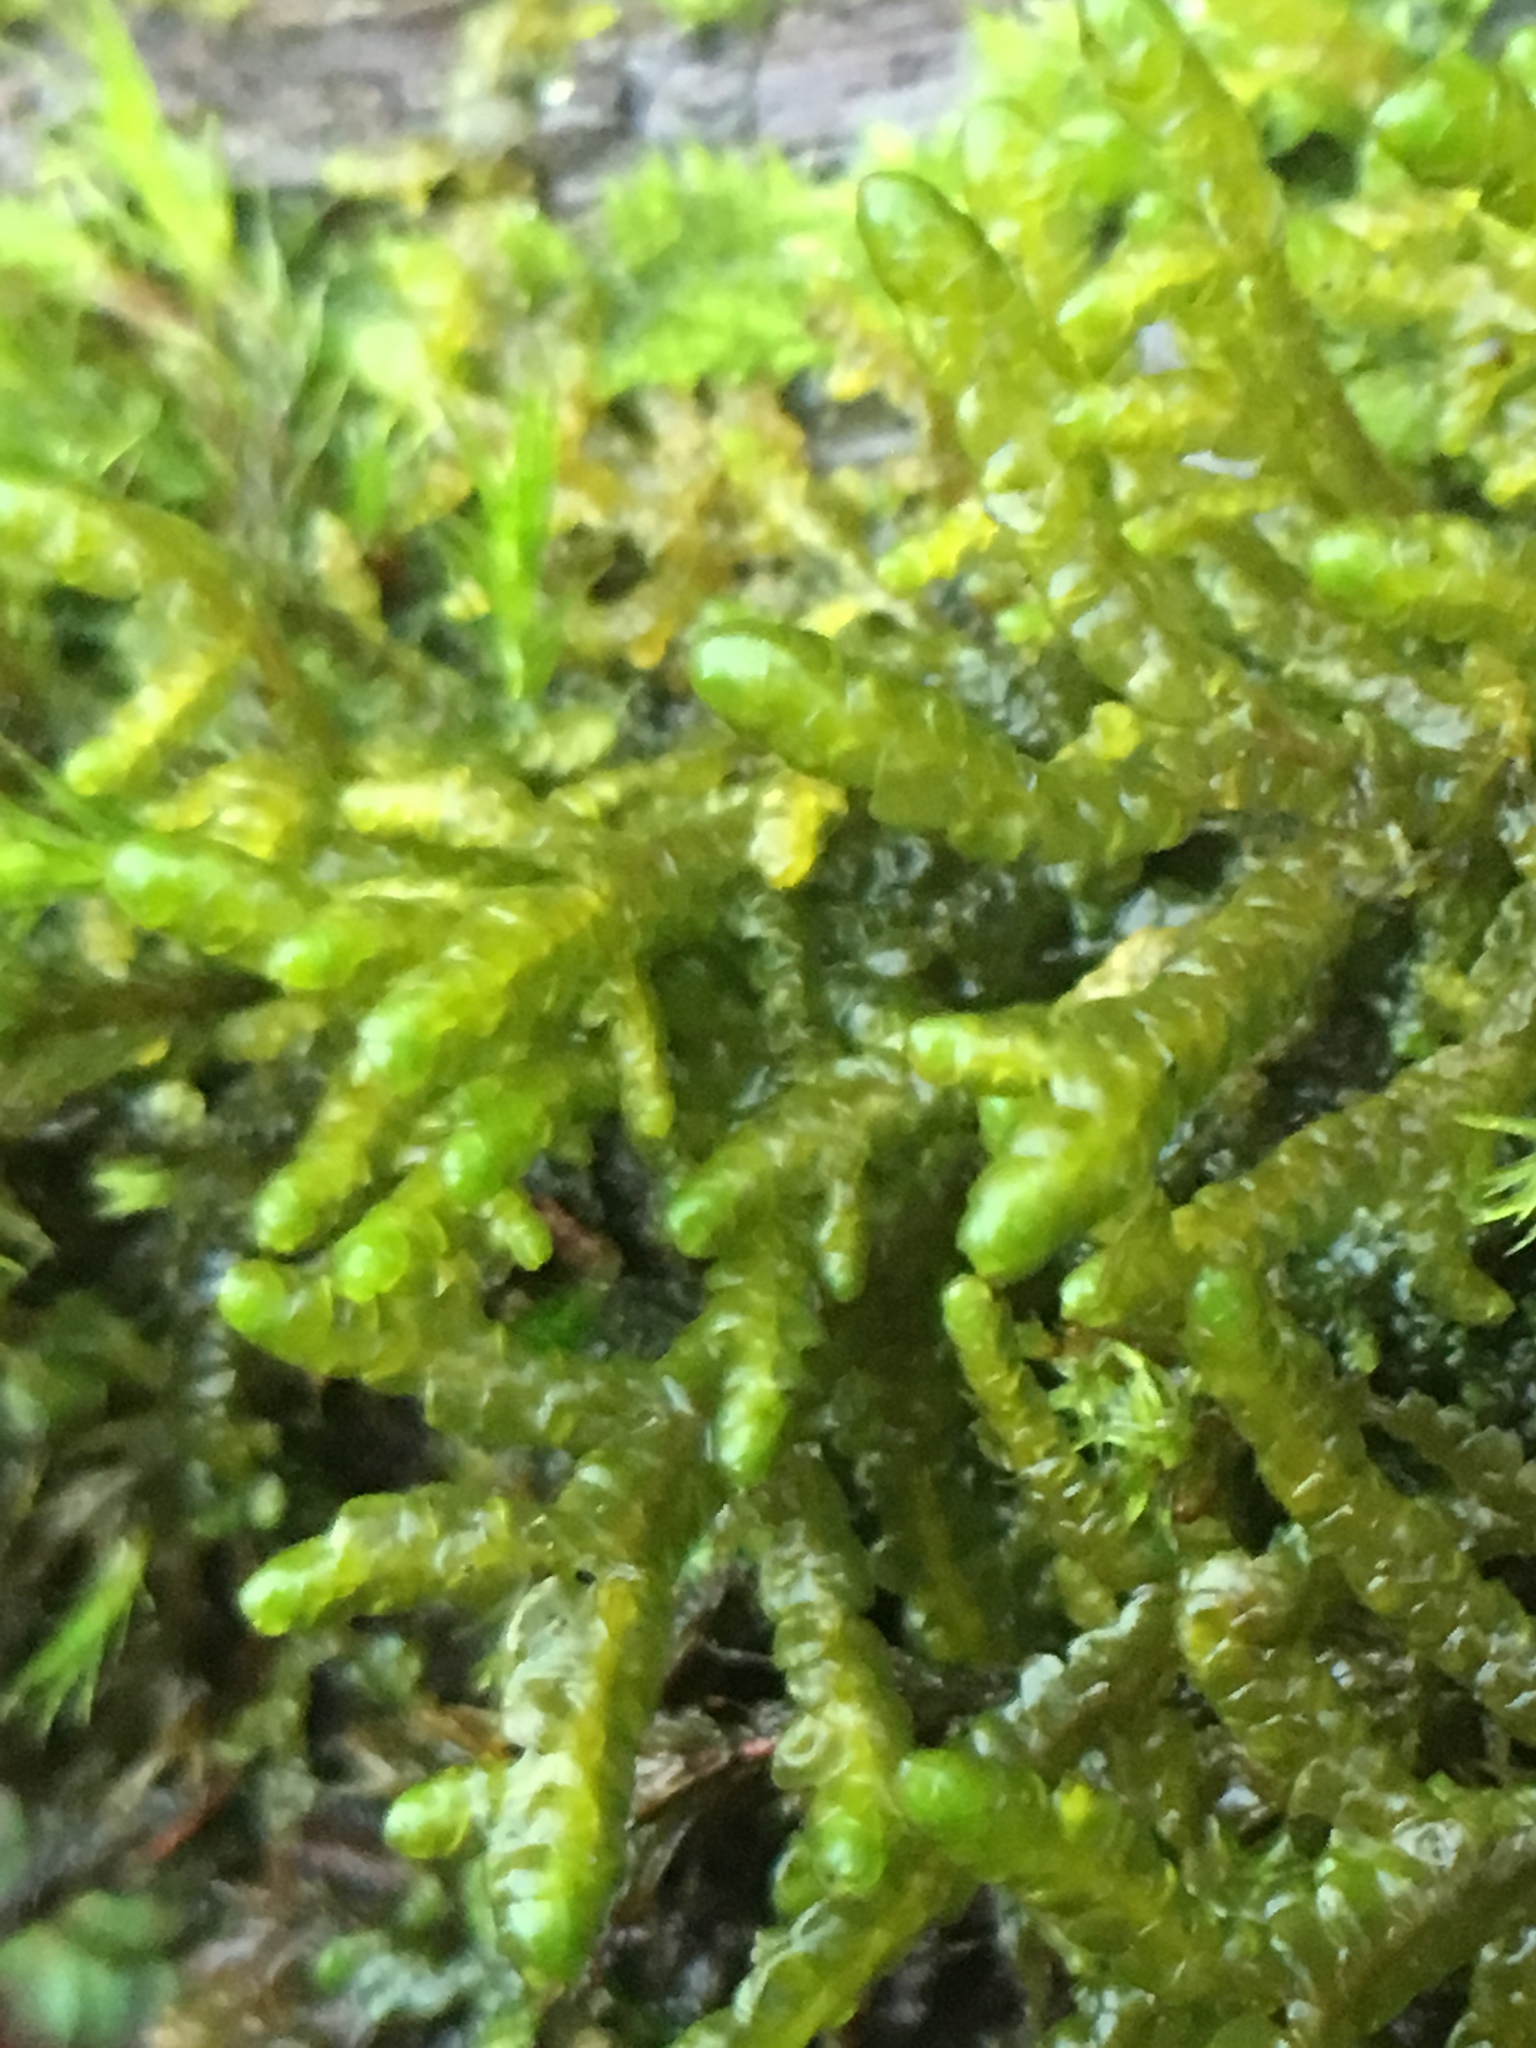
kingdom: Plantae
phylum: Marchantiophyta
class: Jungermanniopsida
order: Porellales
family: Porellaceae
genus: Porella
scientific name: Porella navicularis
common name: Tree ruffle liverwort
